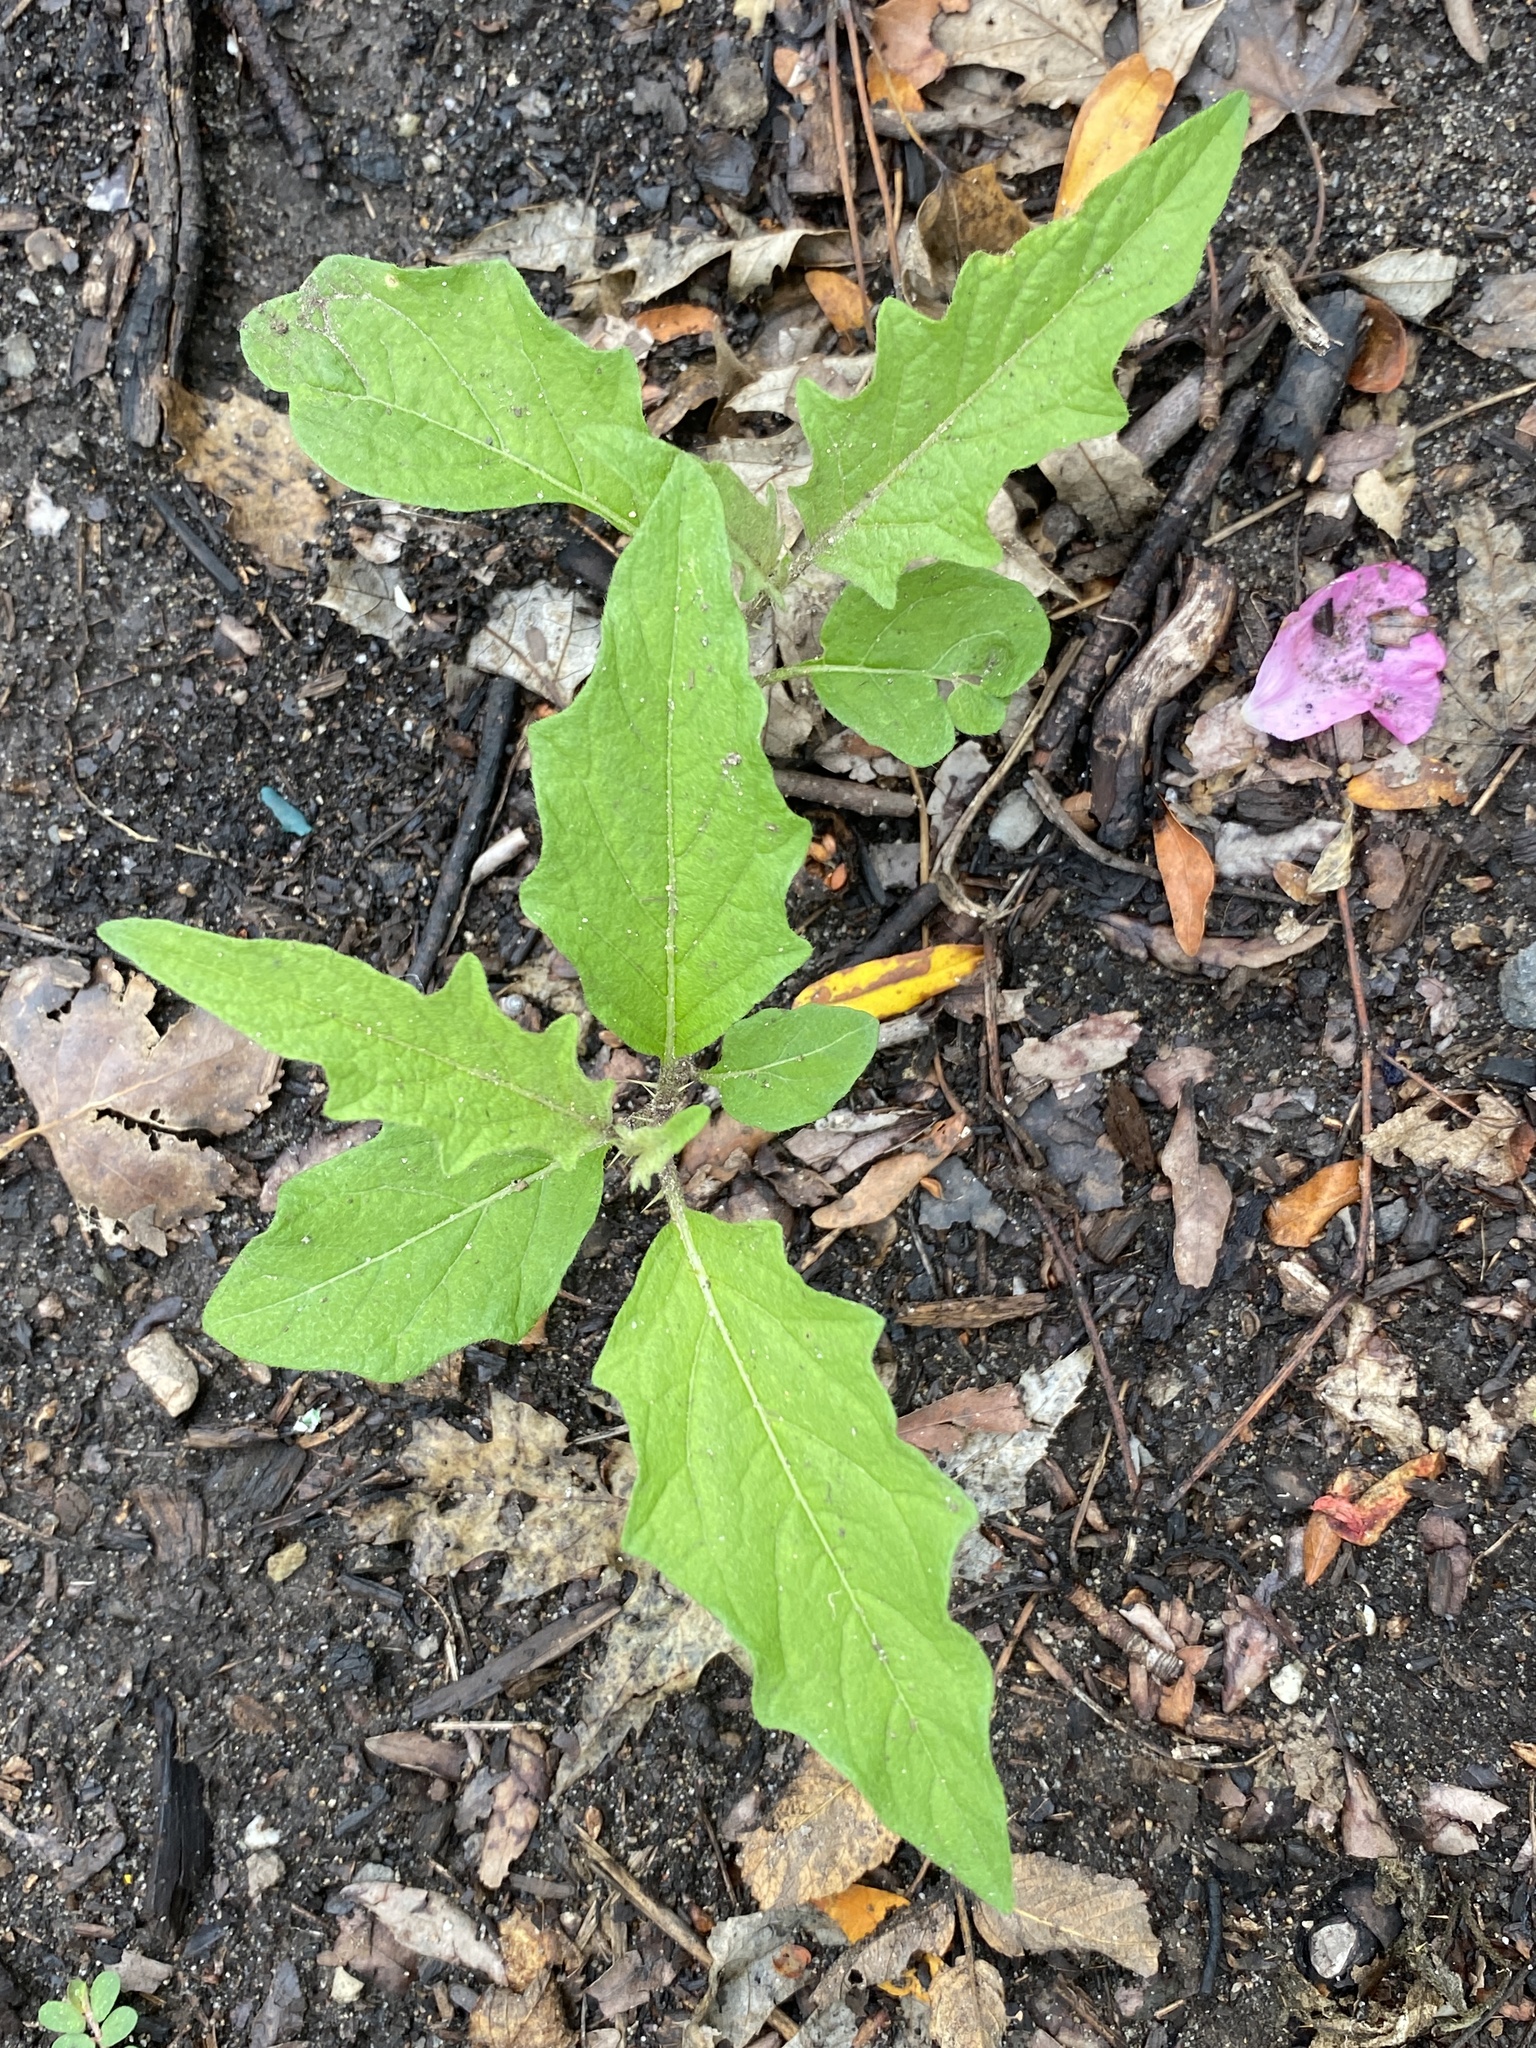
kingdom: Plantae
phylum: Tracheophyta
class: Magnoliopsida
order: Solanales
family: Solanaceae
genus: Solanum
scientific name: Solanum carolinense
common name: Horse-nettle
